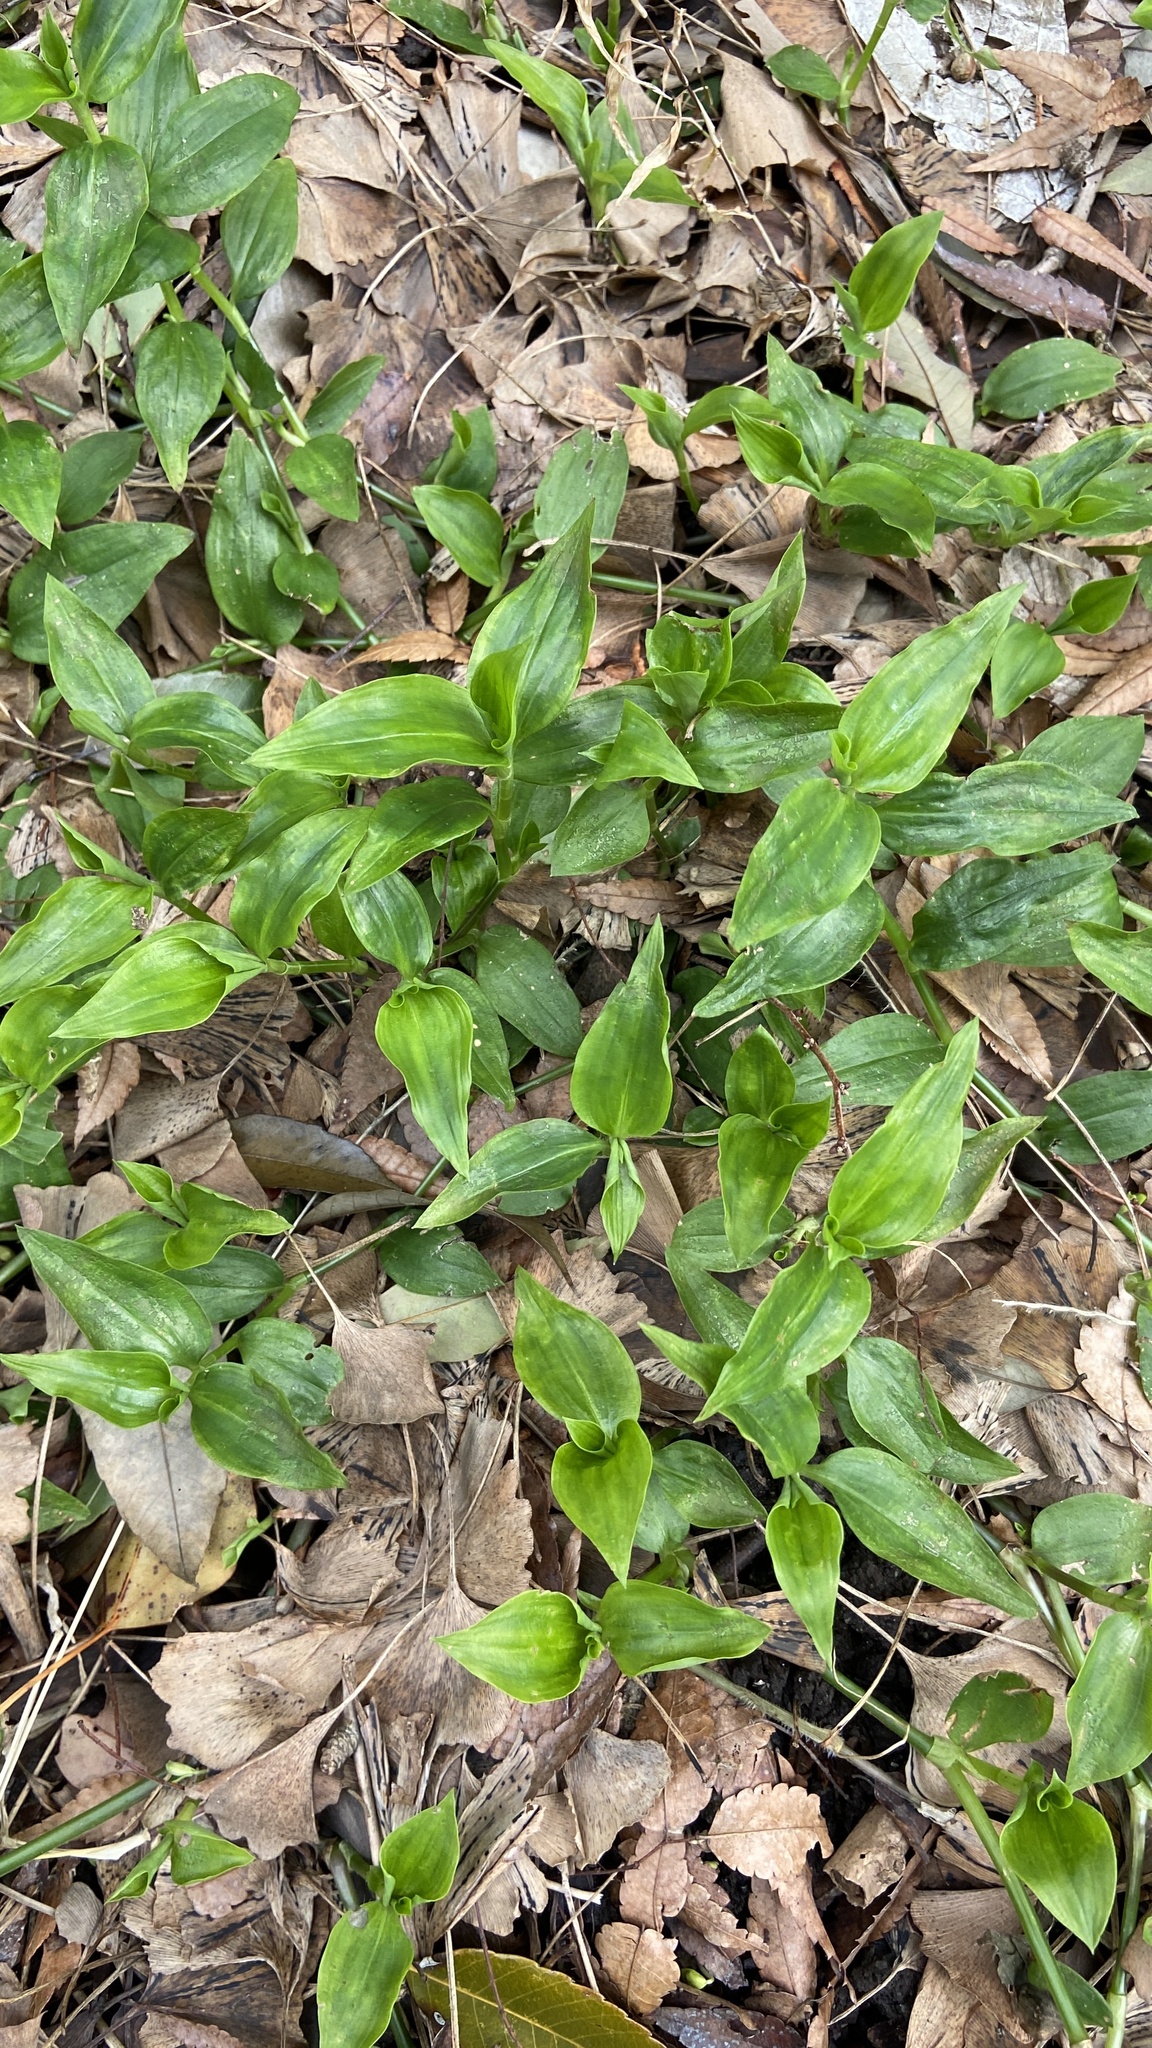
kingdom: Plantae
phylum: Tracheophyta
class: Liliopsida
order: Commelinales
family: Commelinaceae
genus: Tradescantia
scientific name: Tradescantia fluminensis
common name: Wandering-jew
